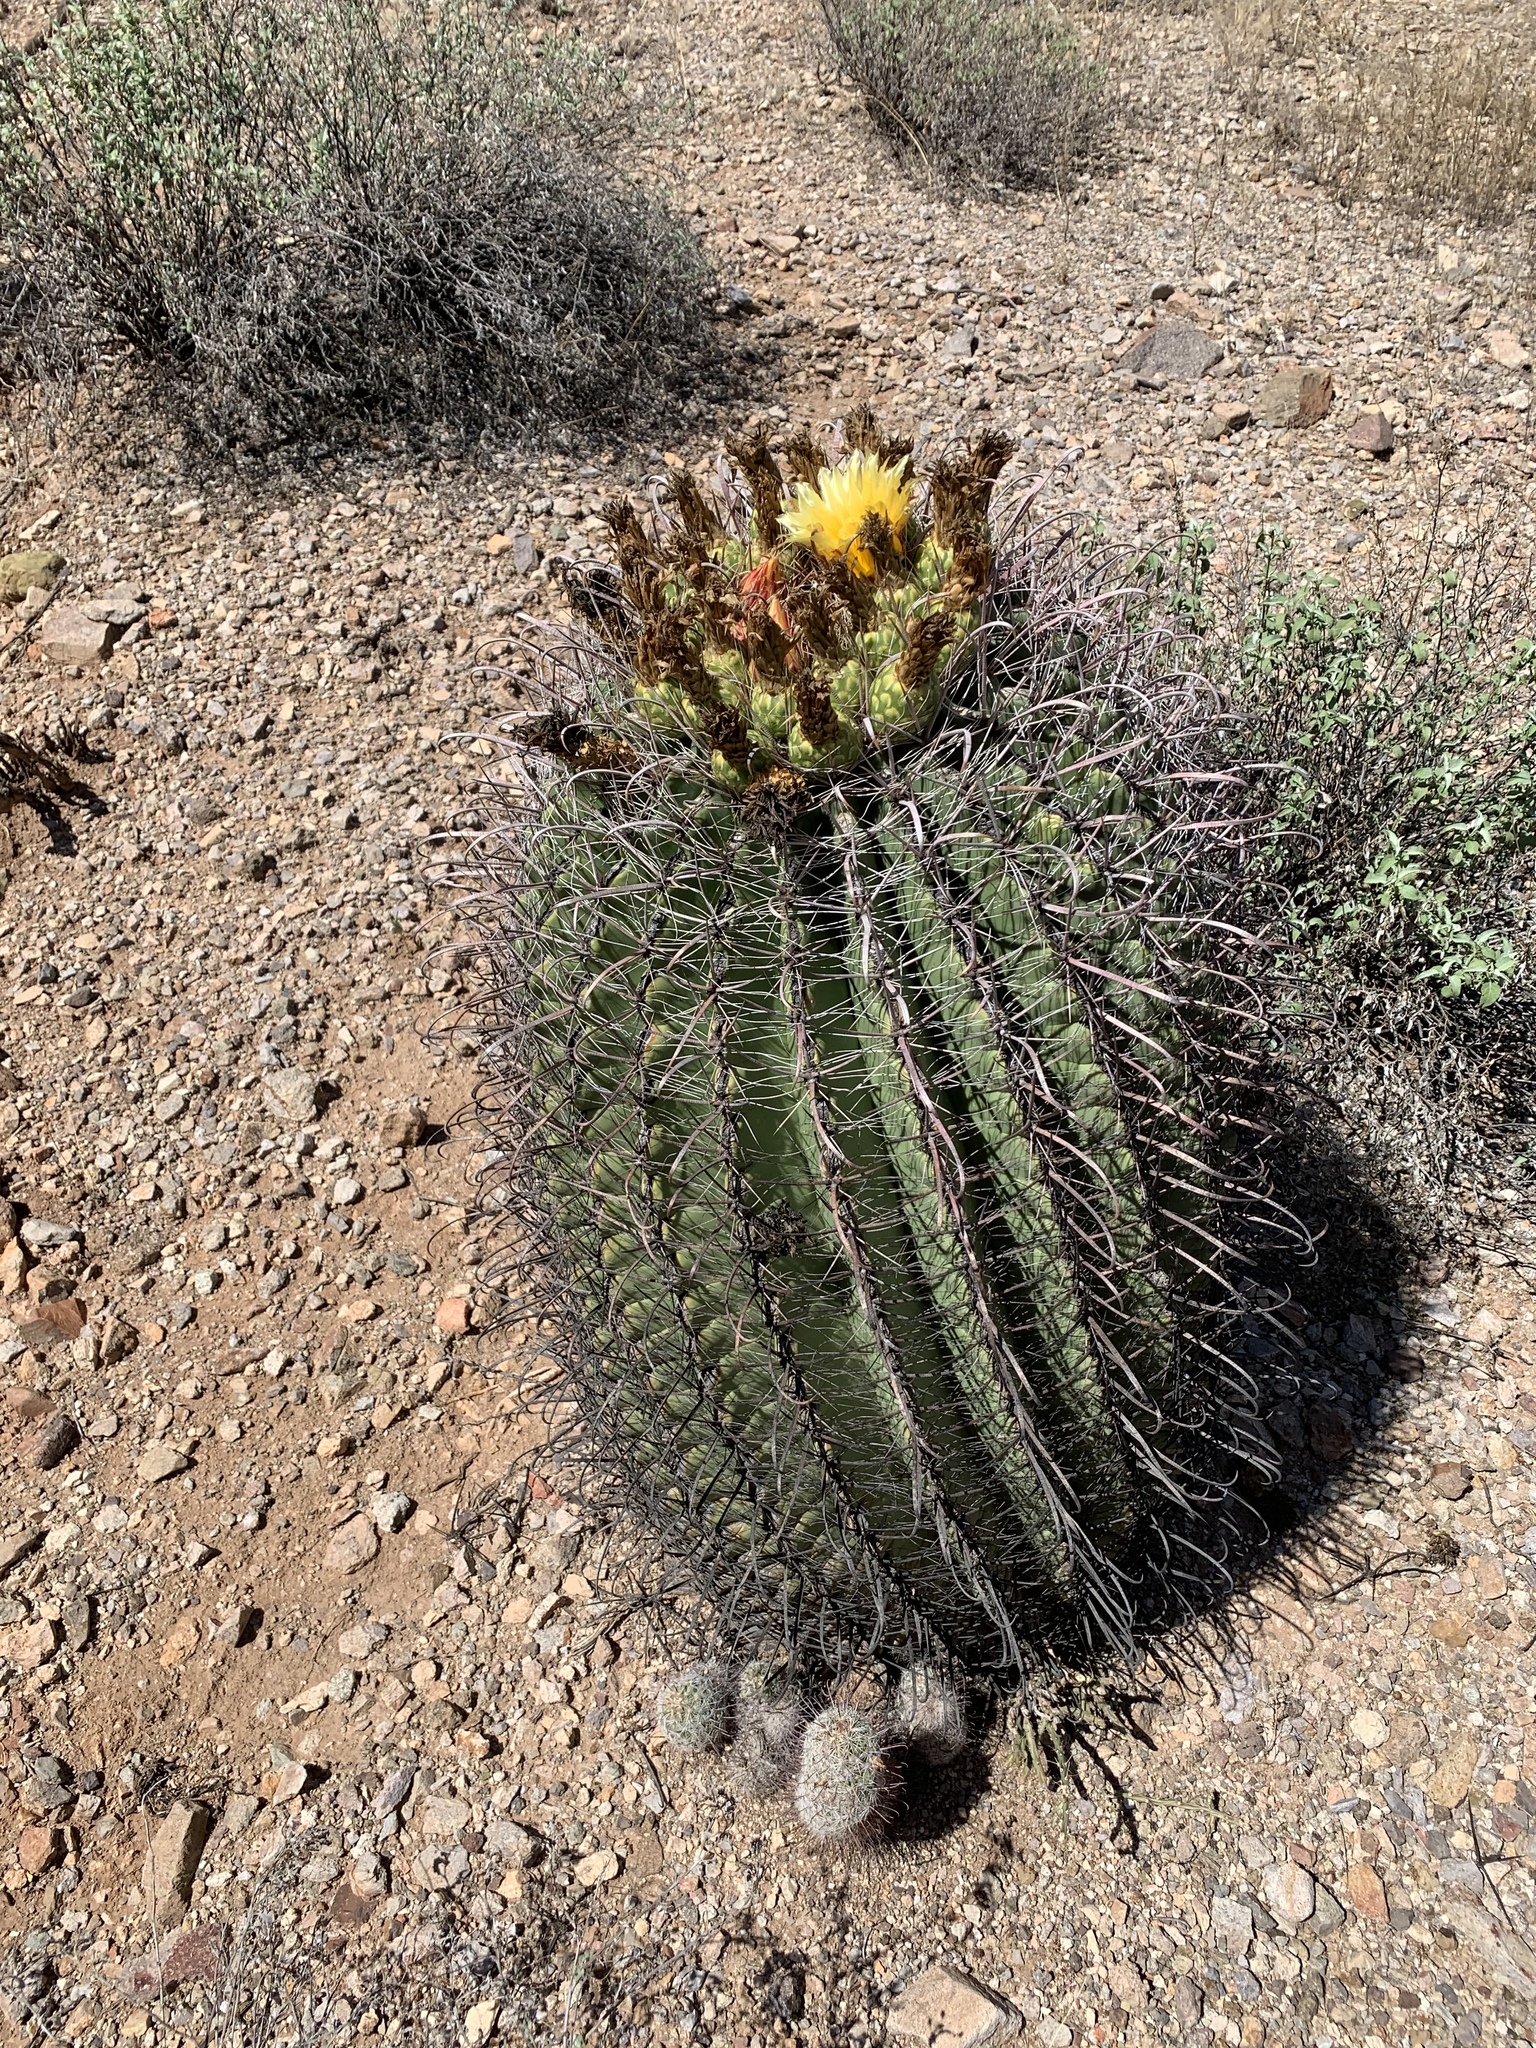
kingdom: Plantae
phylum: Tracheophyta
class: Magnoliopsida
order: Caryophyllales
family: Cactaceae
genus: Ferocactus
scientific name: Ferocactus wislizeni
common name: Candy barrel cactus
